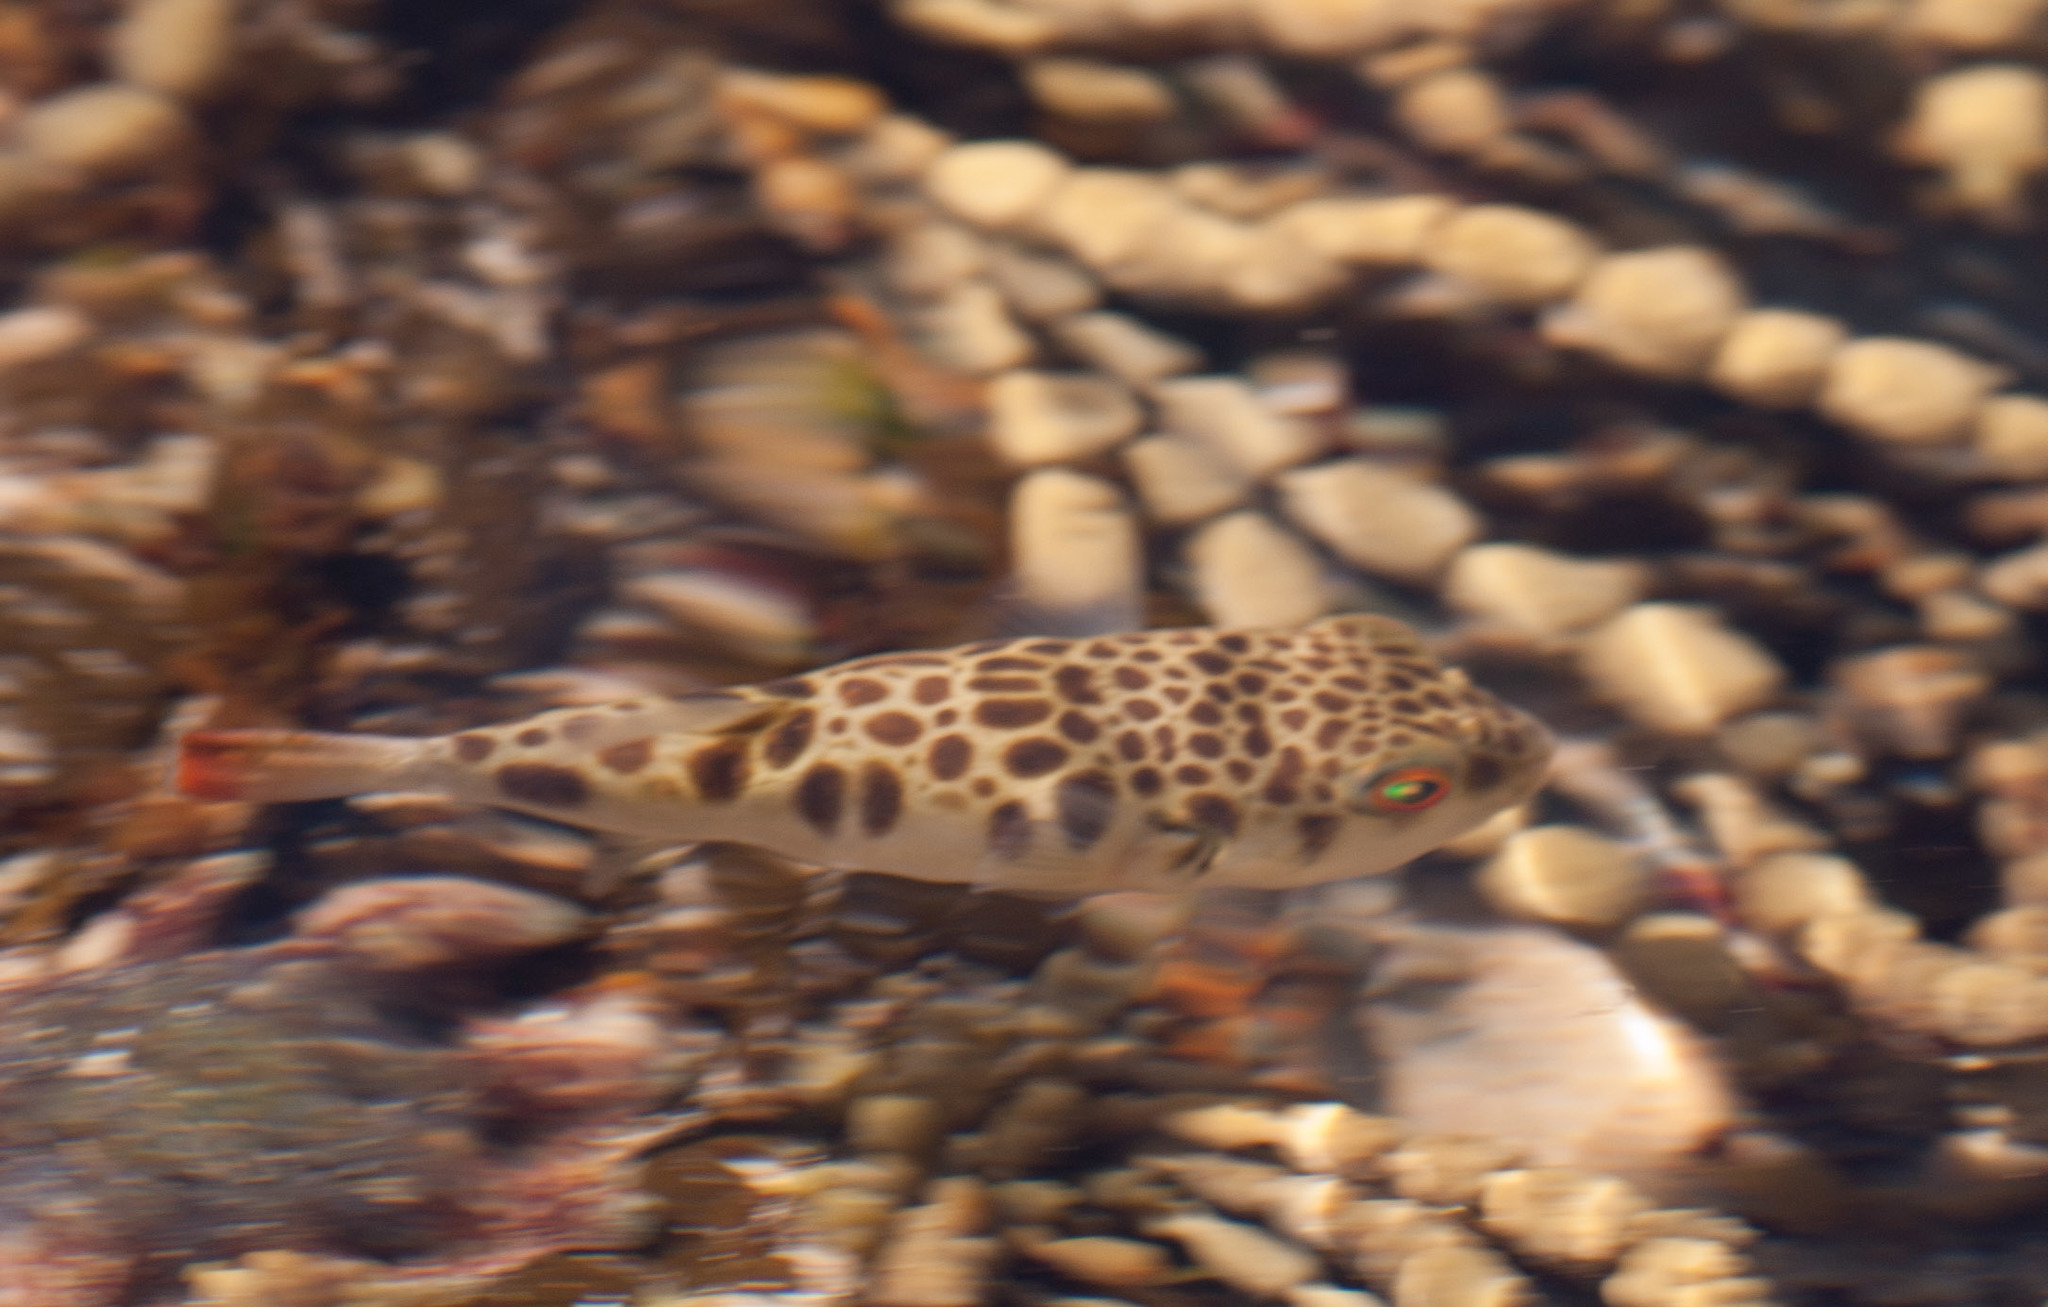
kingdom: Animalia
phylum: Chordata
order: Tetraodontiformes
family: Tetraodontidae
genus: Tetractenos
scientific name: Tetractenos glaber
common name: Smooth toadfish
